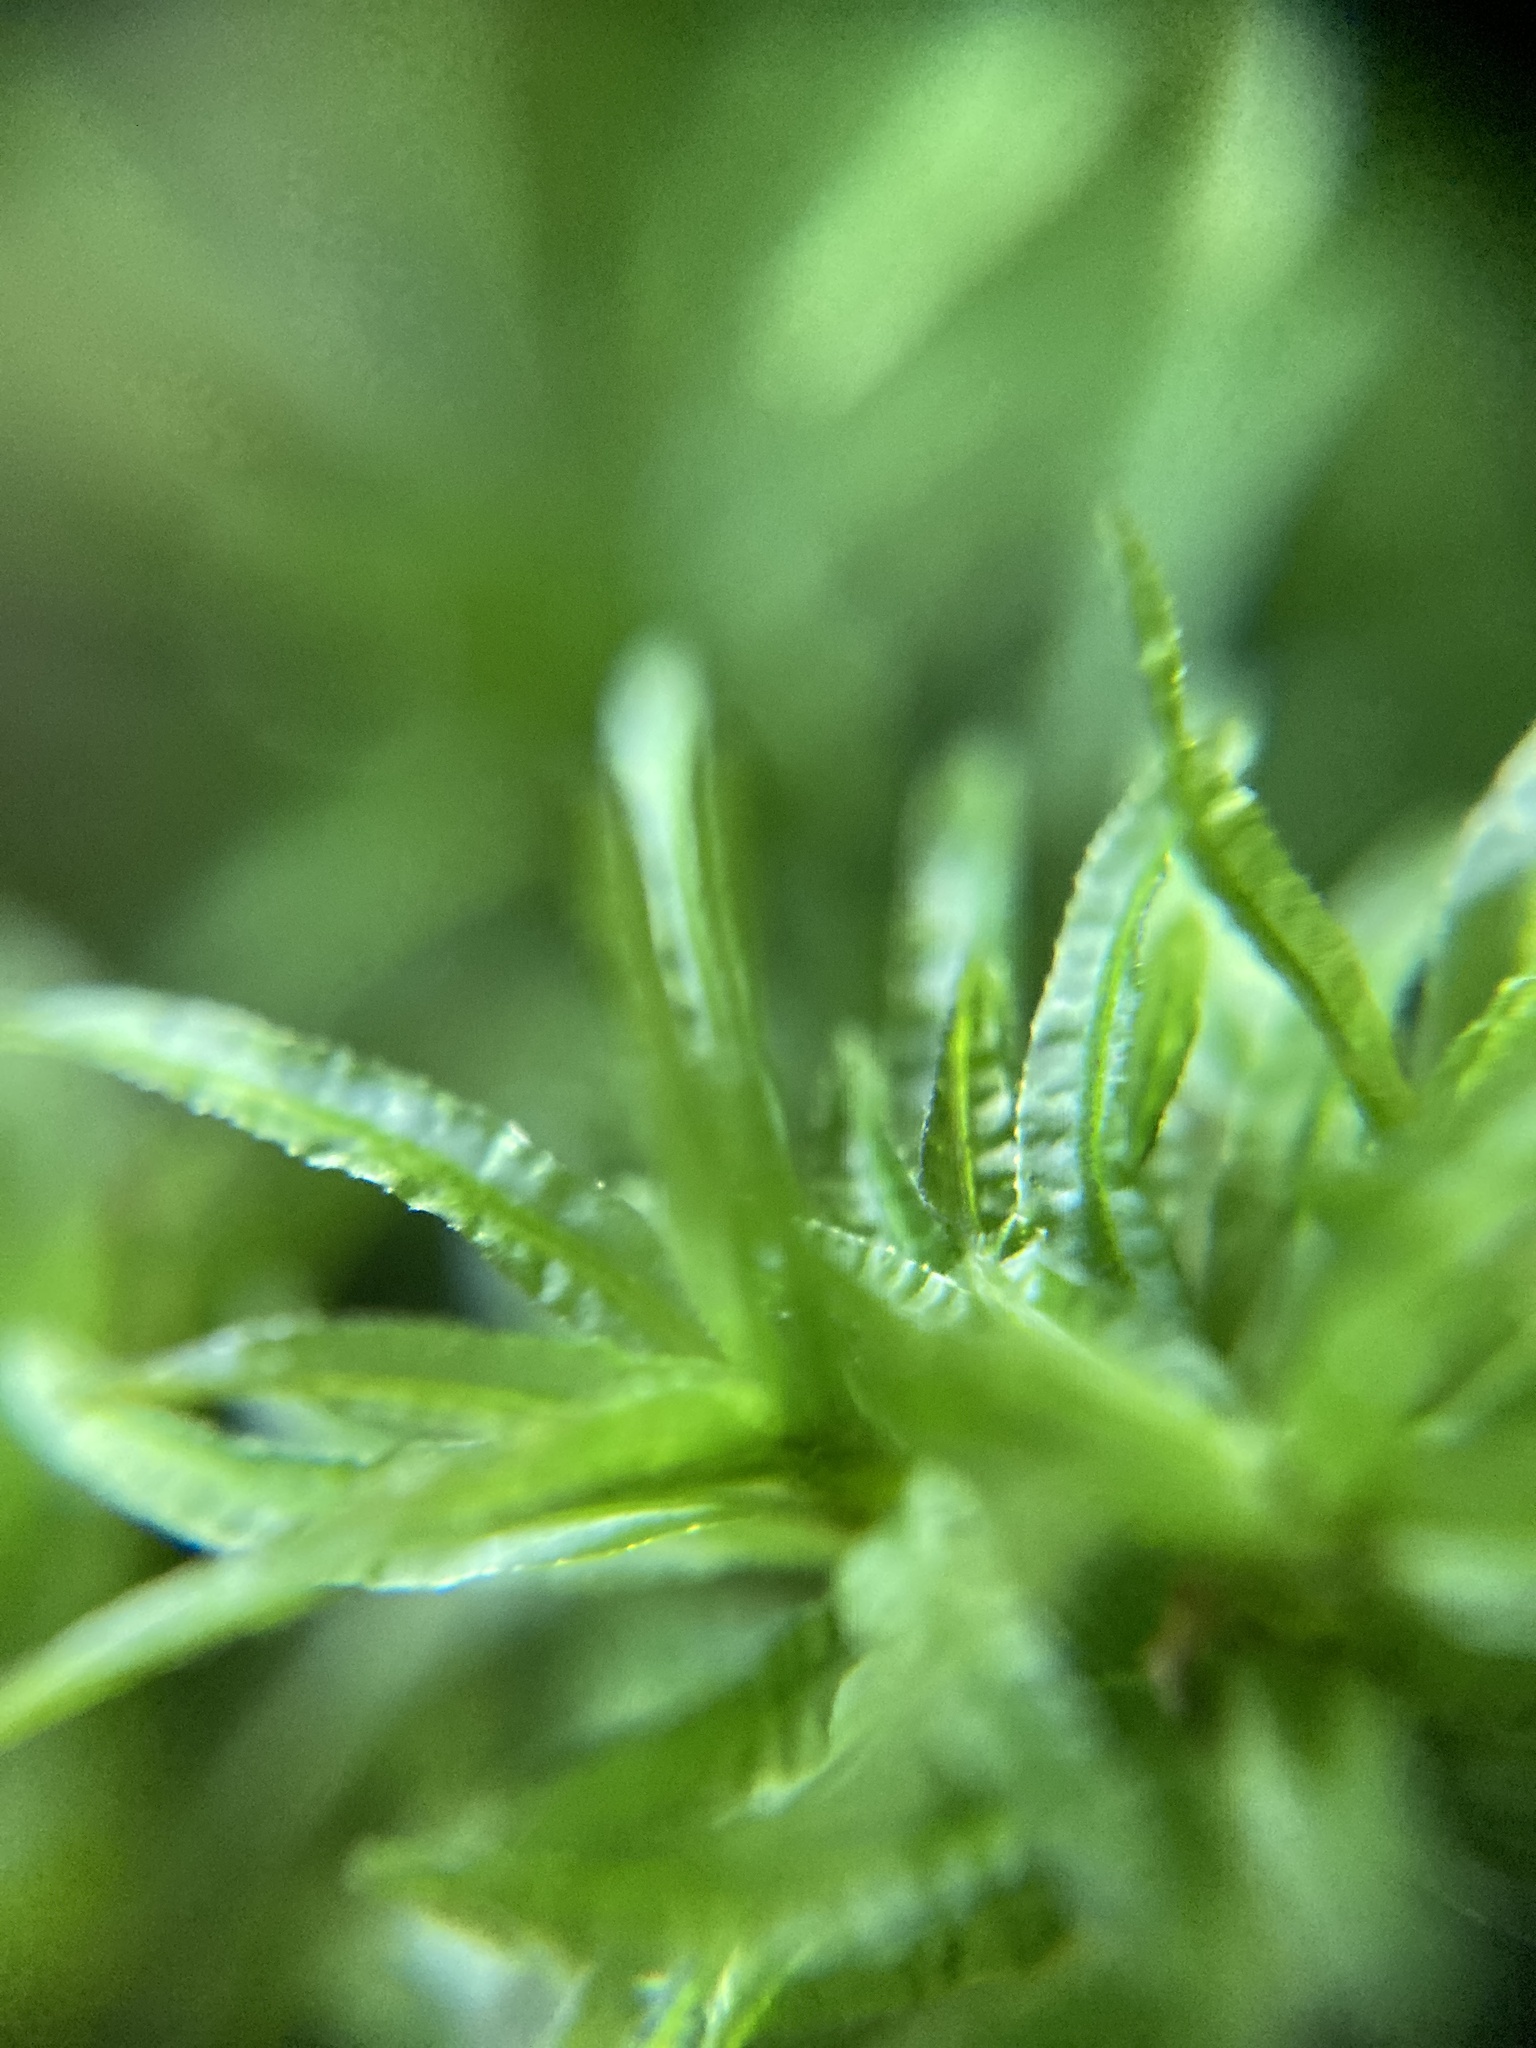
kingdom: Plantae
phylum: Bryophyta
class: Polytrichopsida
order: Polytrichales
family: Polytrichaceae
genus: Atrichum
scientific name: Atrichum undulatum
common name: Common smoothcap
